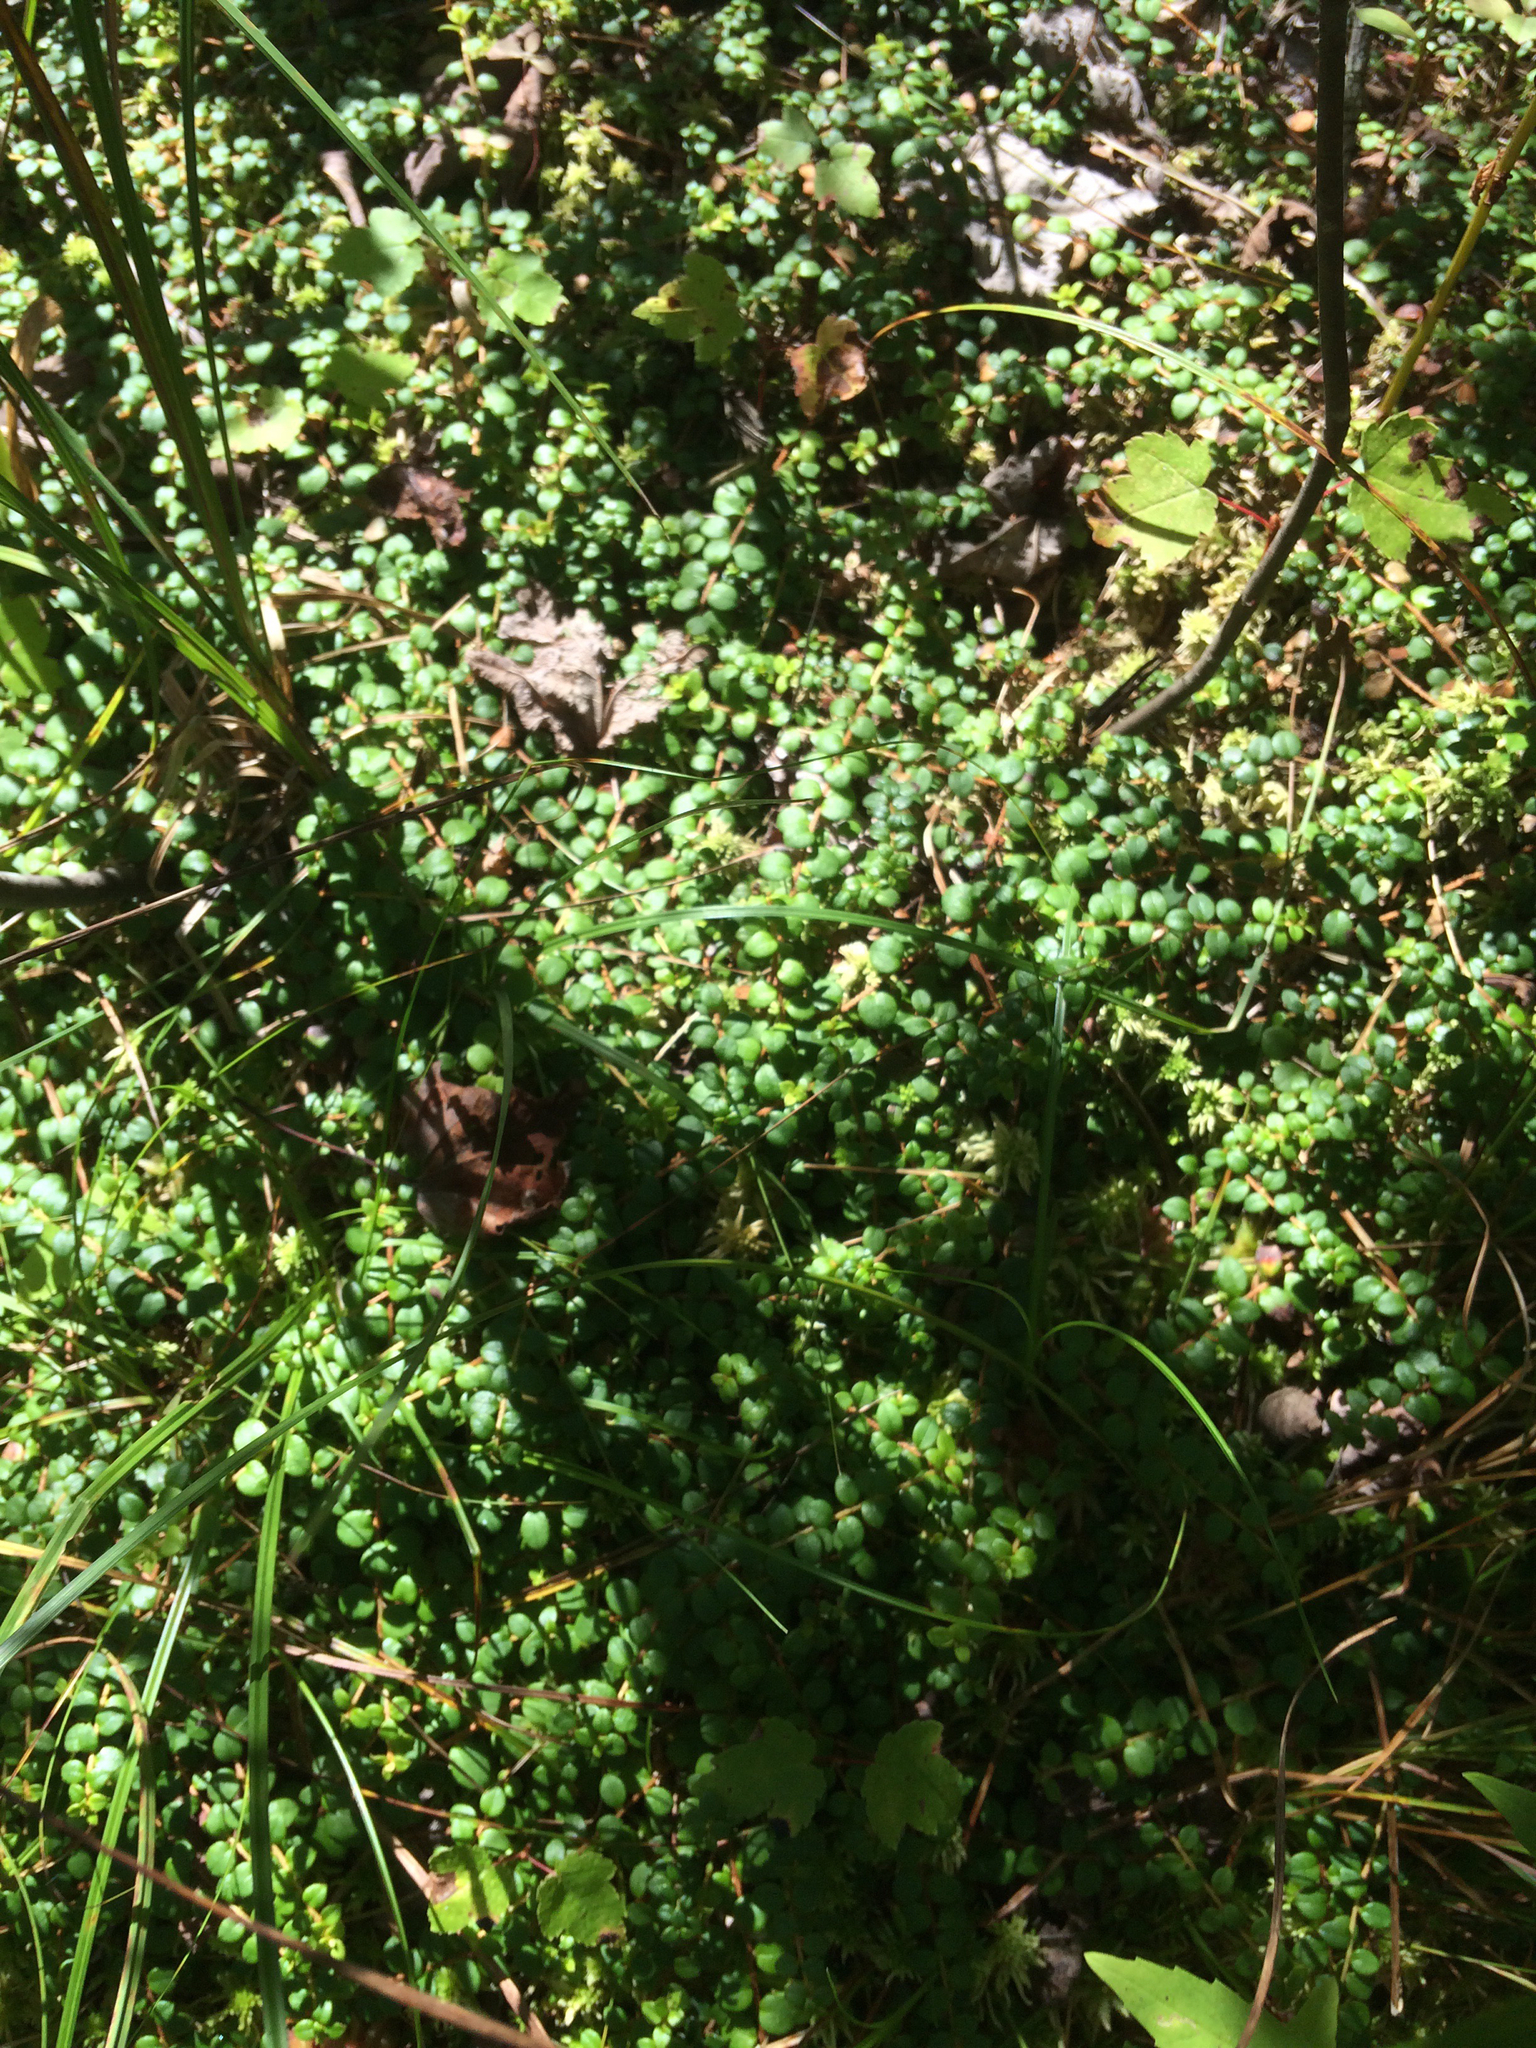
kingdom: Plantae
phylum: Tracheophyta
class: Magnoliopsida
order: Ericales
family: Ericaceae
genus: Gaultheria
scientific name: Gaultheria hispidula
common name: Cancer wintergreen
